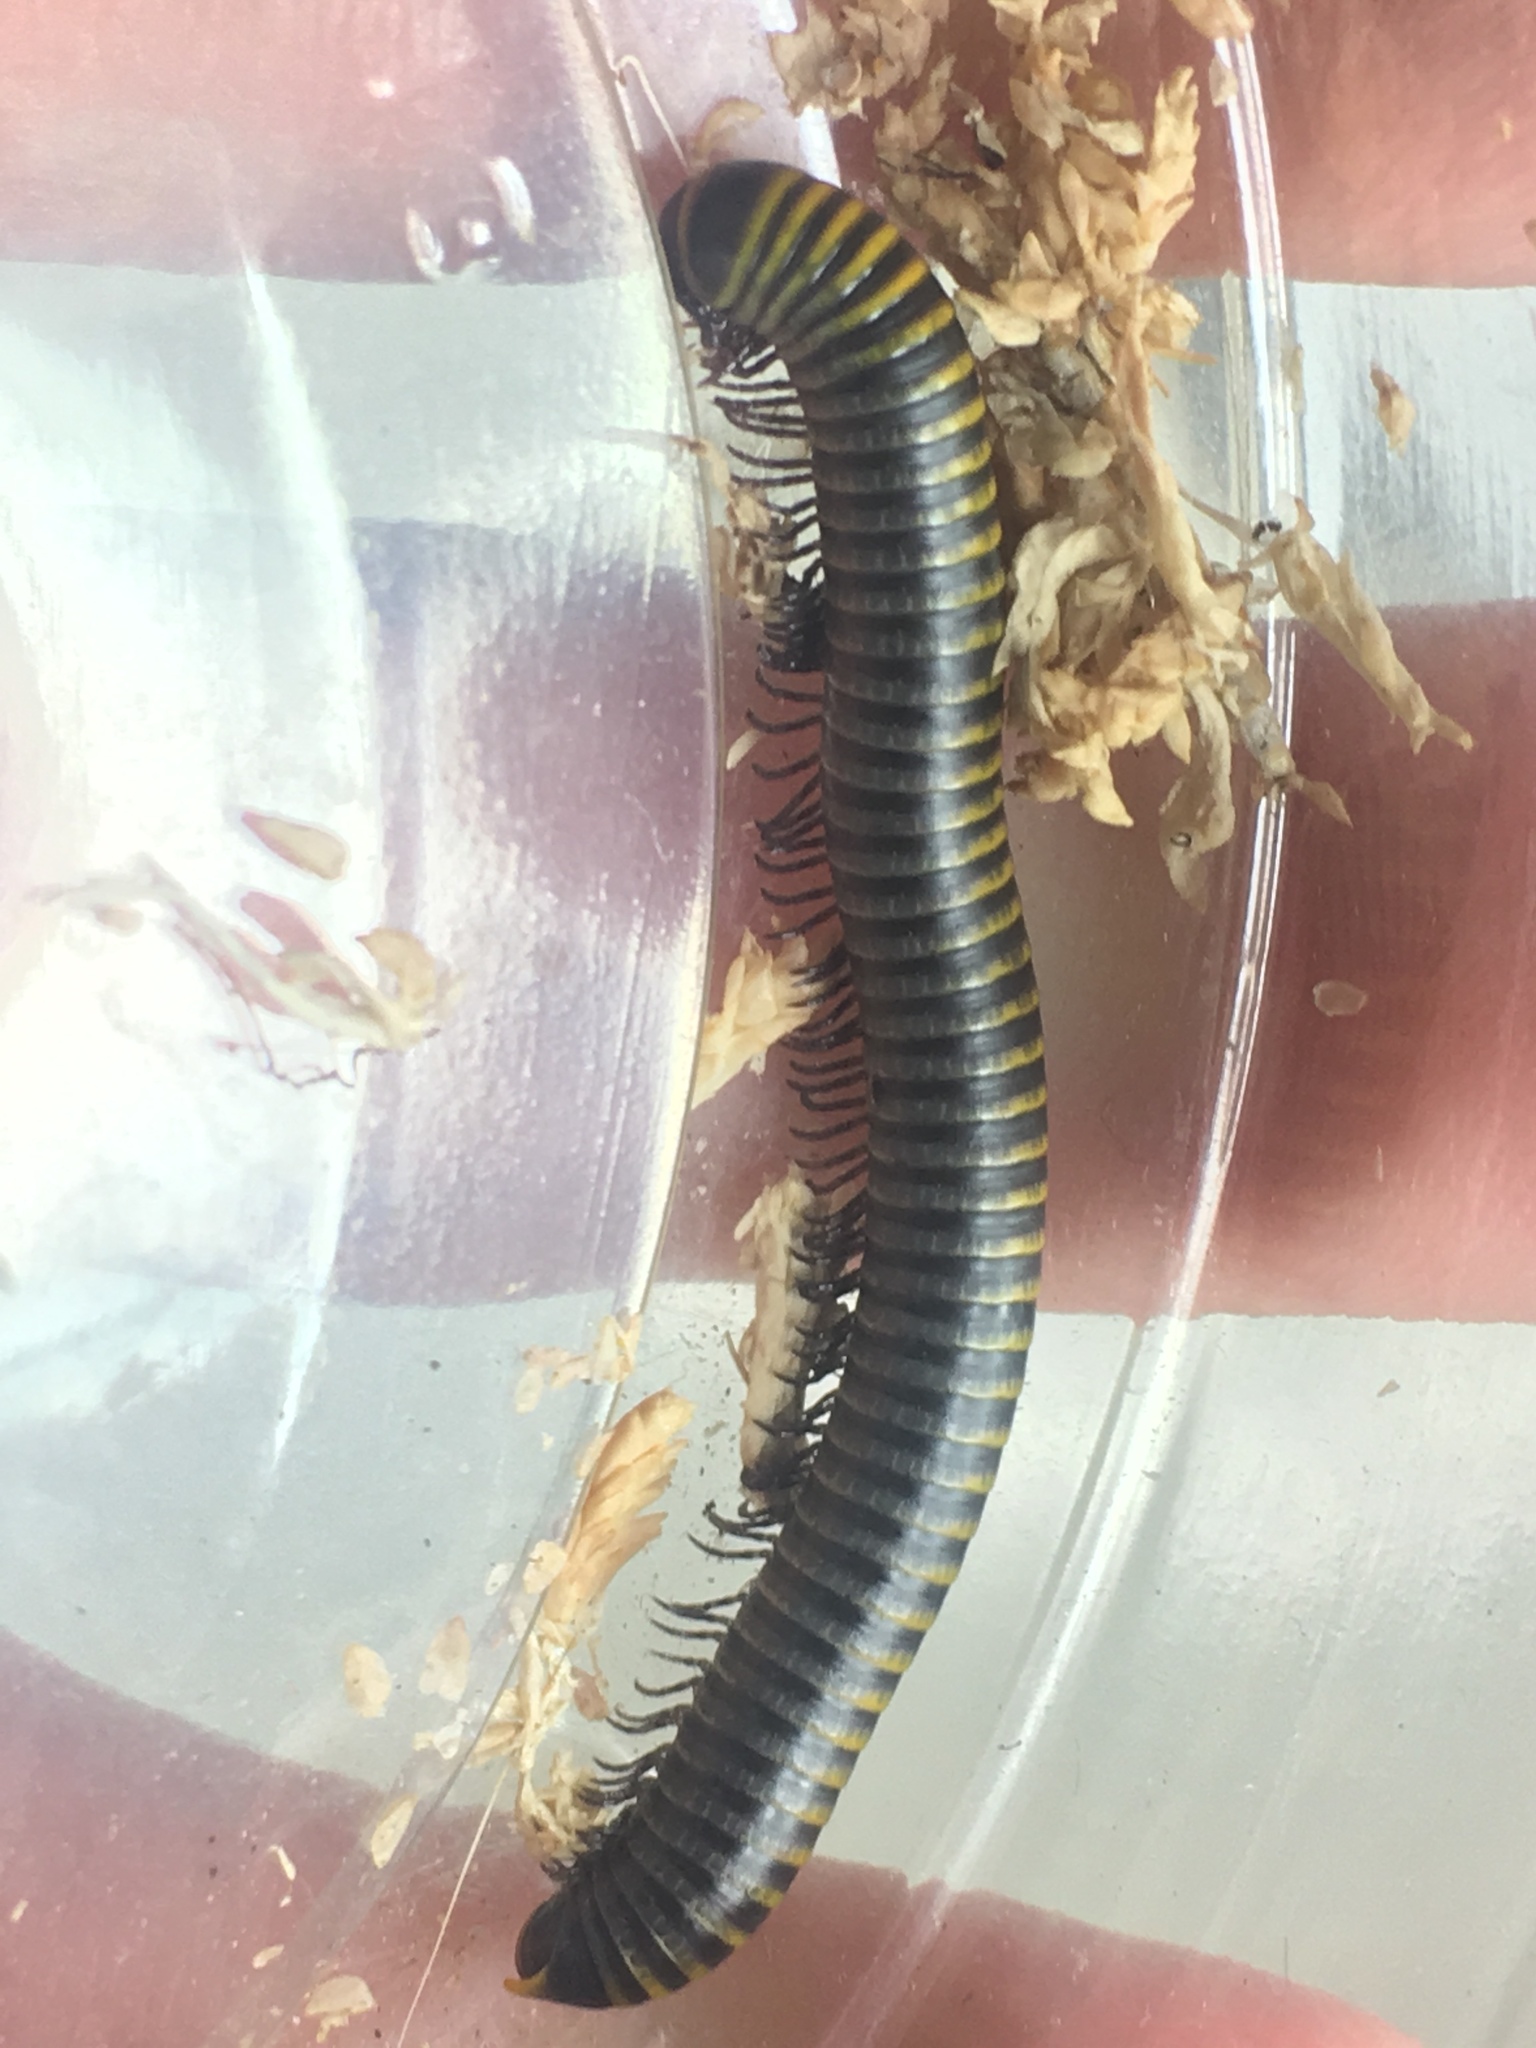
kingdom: Animalia
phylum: Arthropoda
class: Diplopoda
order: Spirobolida
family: Rhinocricidae
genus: Anadenobolus
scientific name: Anadenobolus monilicornis
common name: Caribbean millipede
